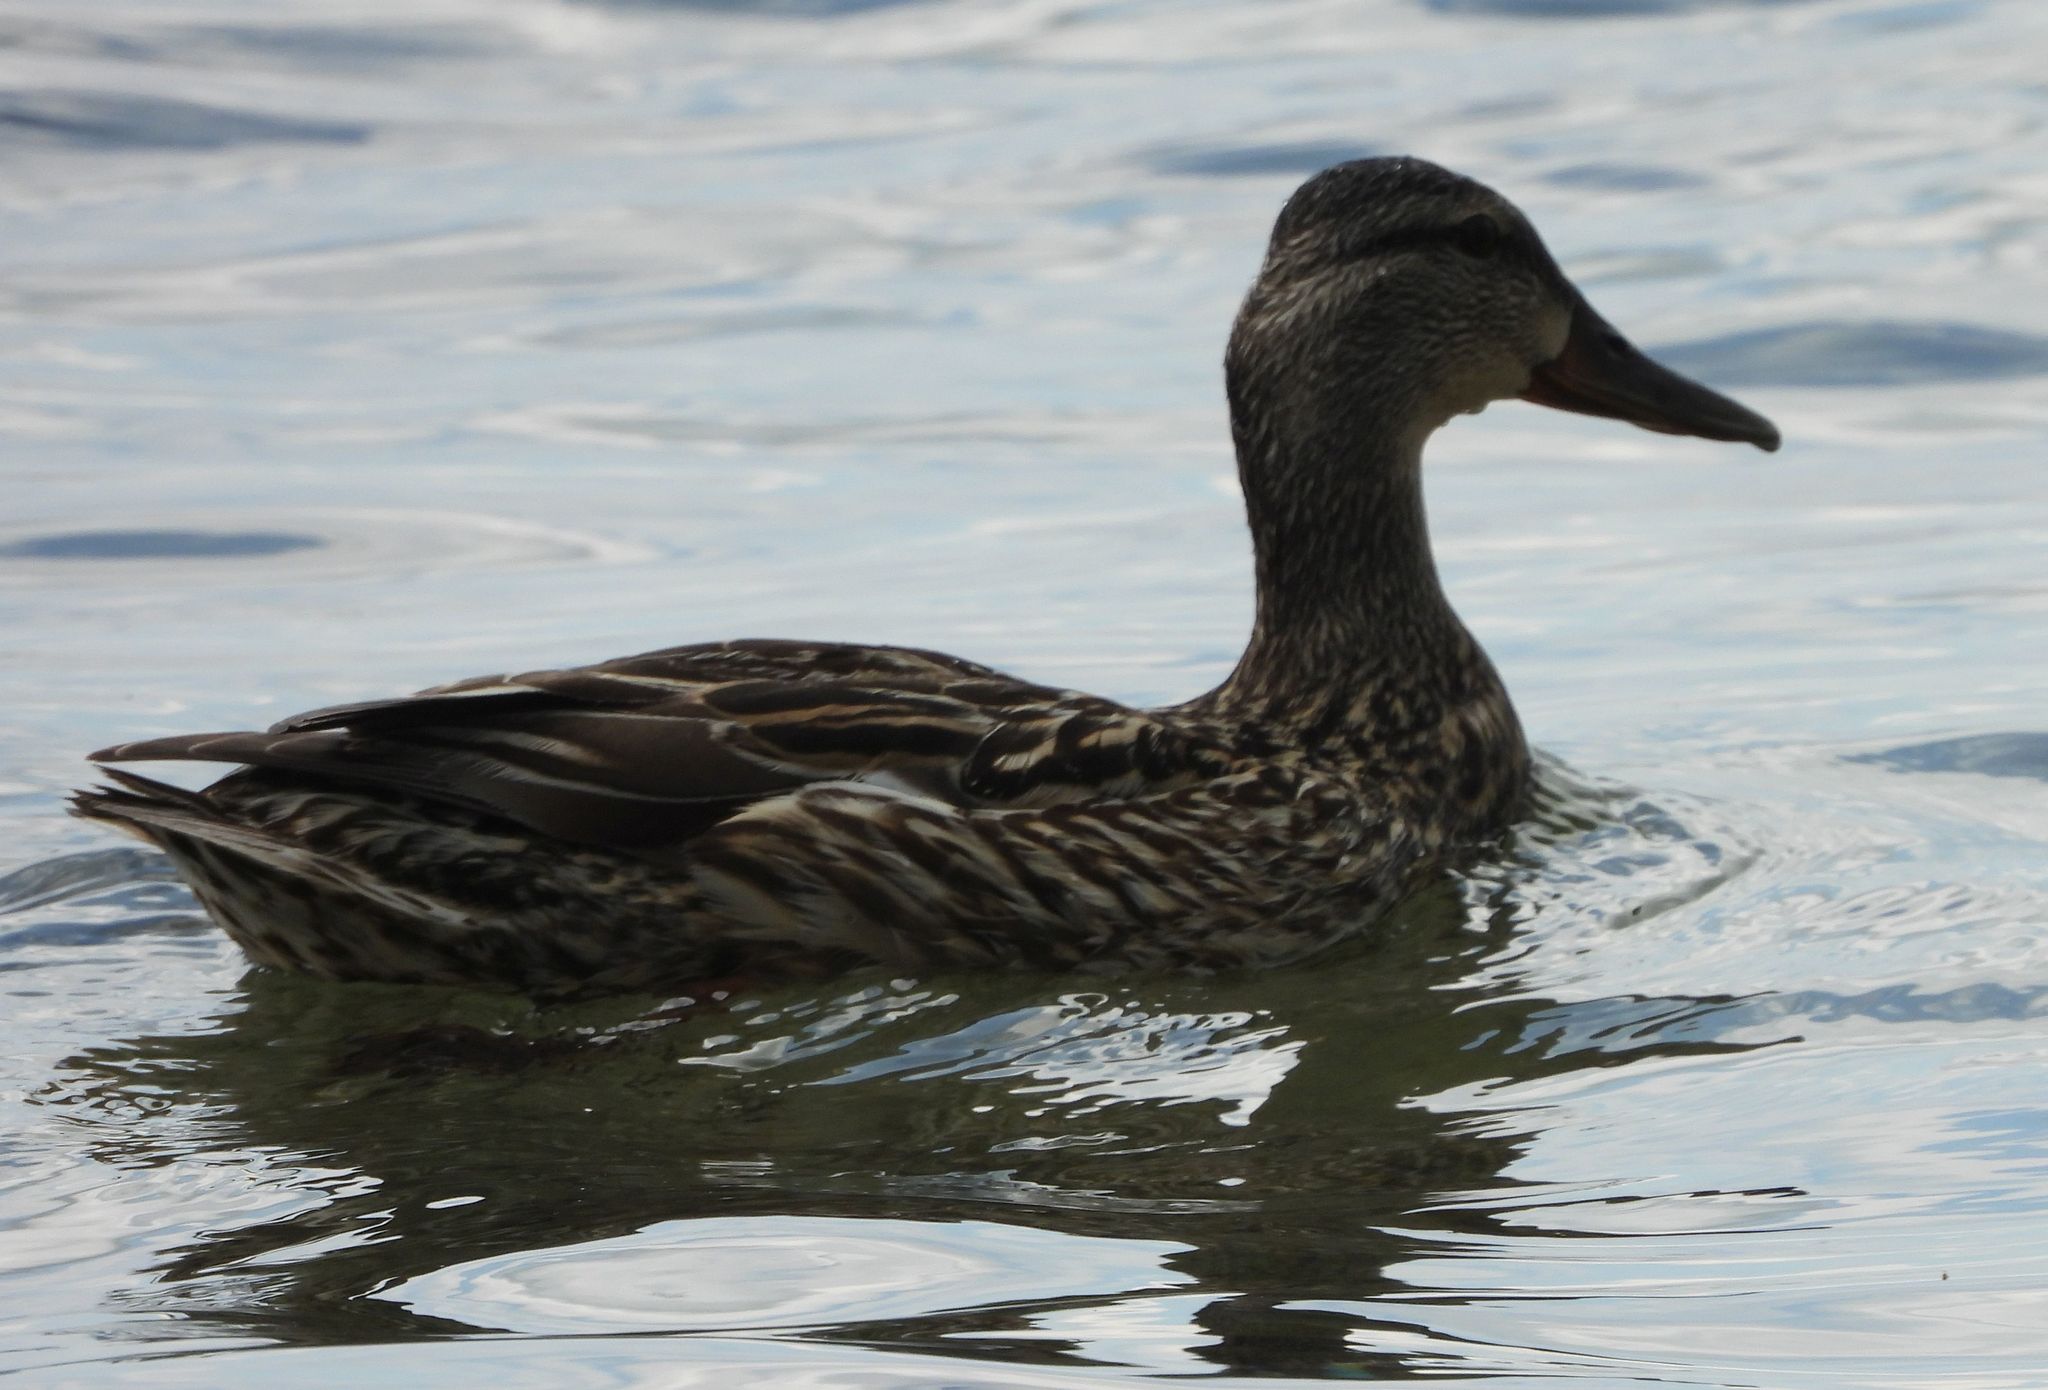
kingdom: Animalia
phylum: Chordata
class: Aves
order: Anseriformes
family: Anatidae
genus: Anas
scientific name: Anas platyrhynchos
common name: Mallard
